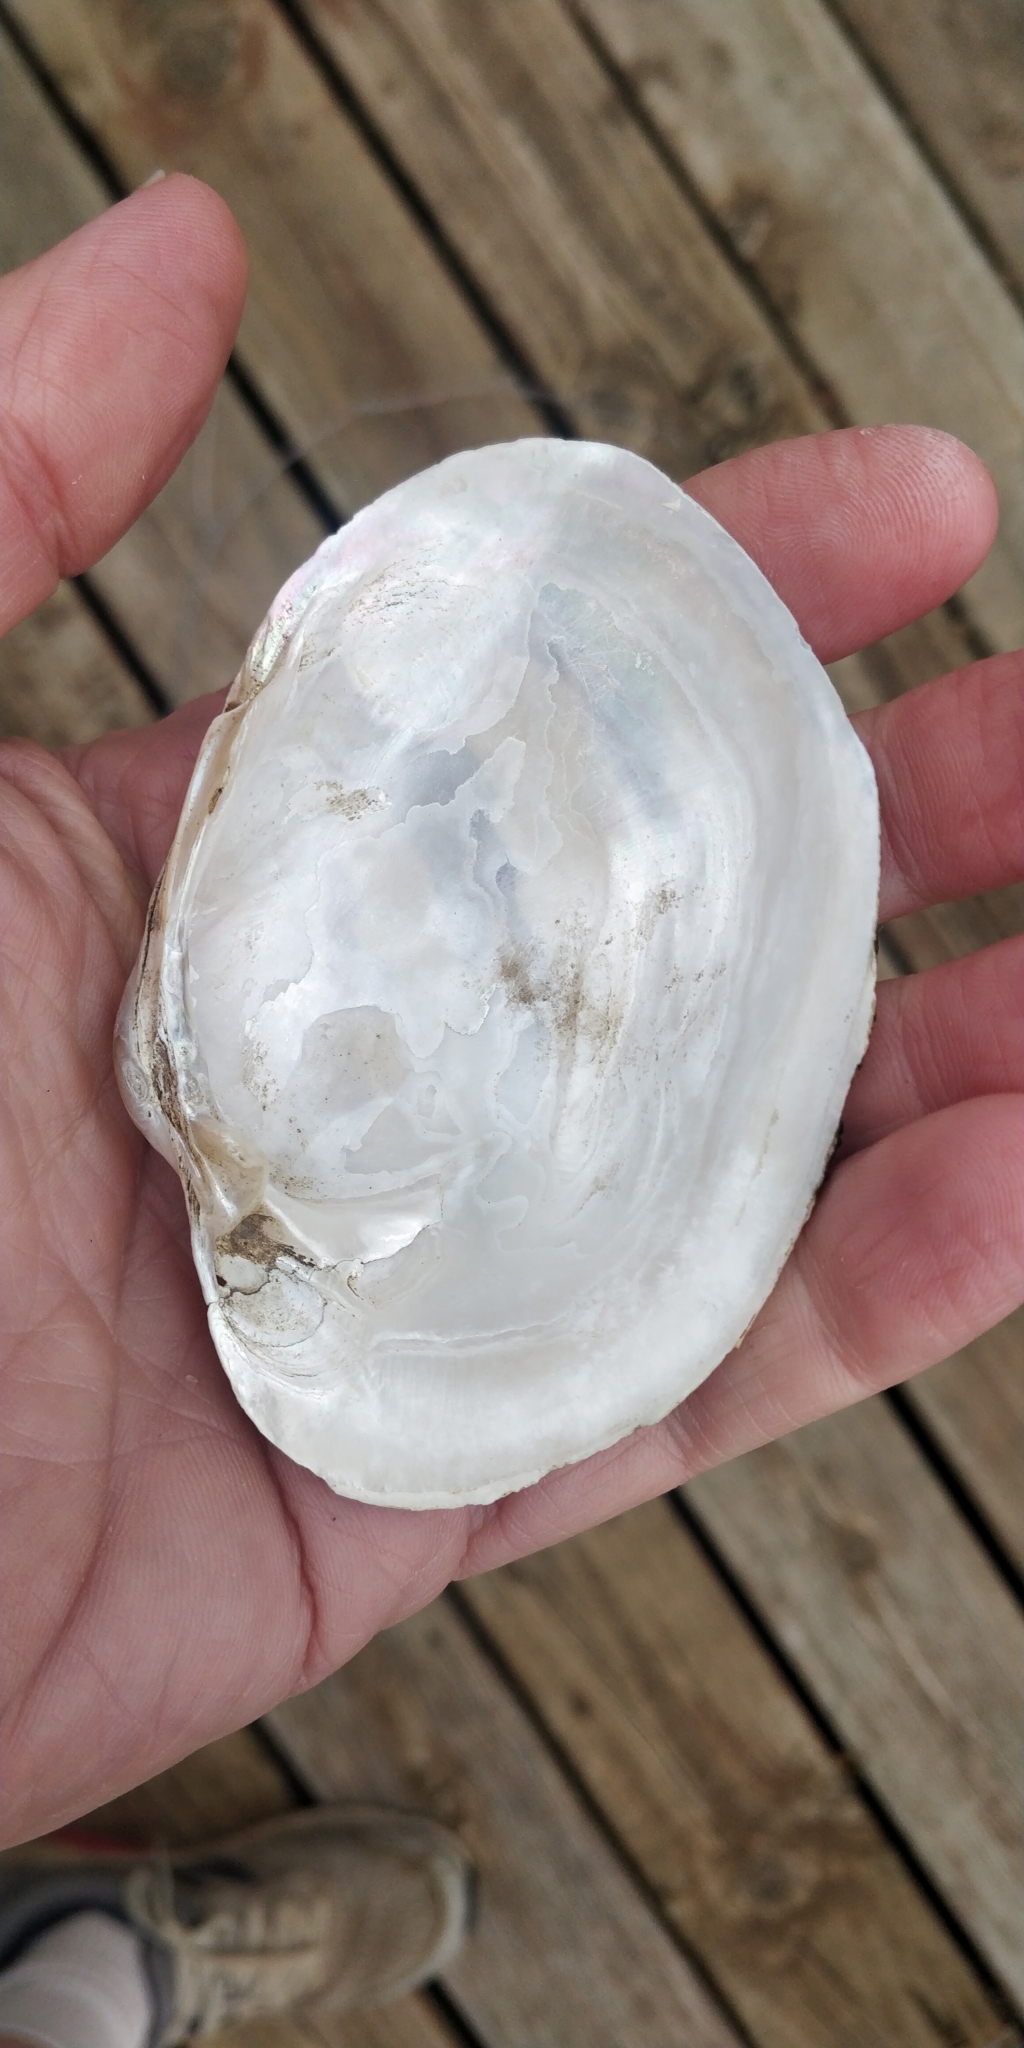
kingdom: Animalia
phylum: Mollusca
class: Bivalvia
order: Unionida
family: Unionidae
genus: Lampsilis
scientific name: Lampsilis cardium
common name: Plain pocketbook
